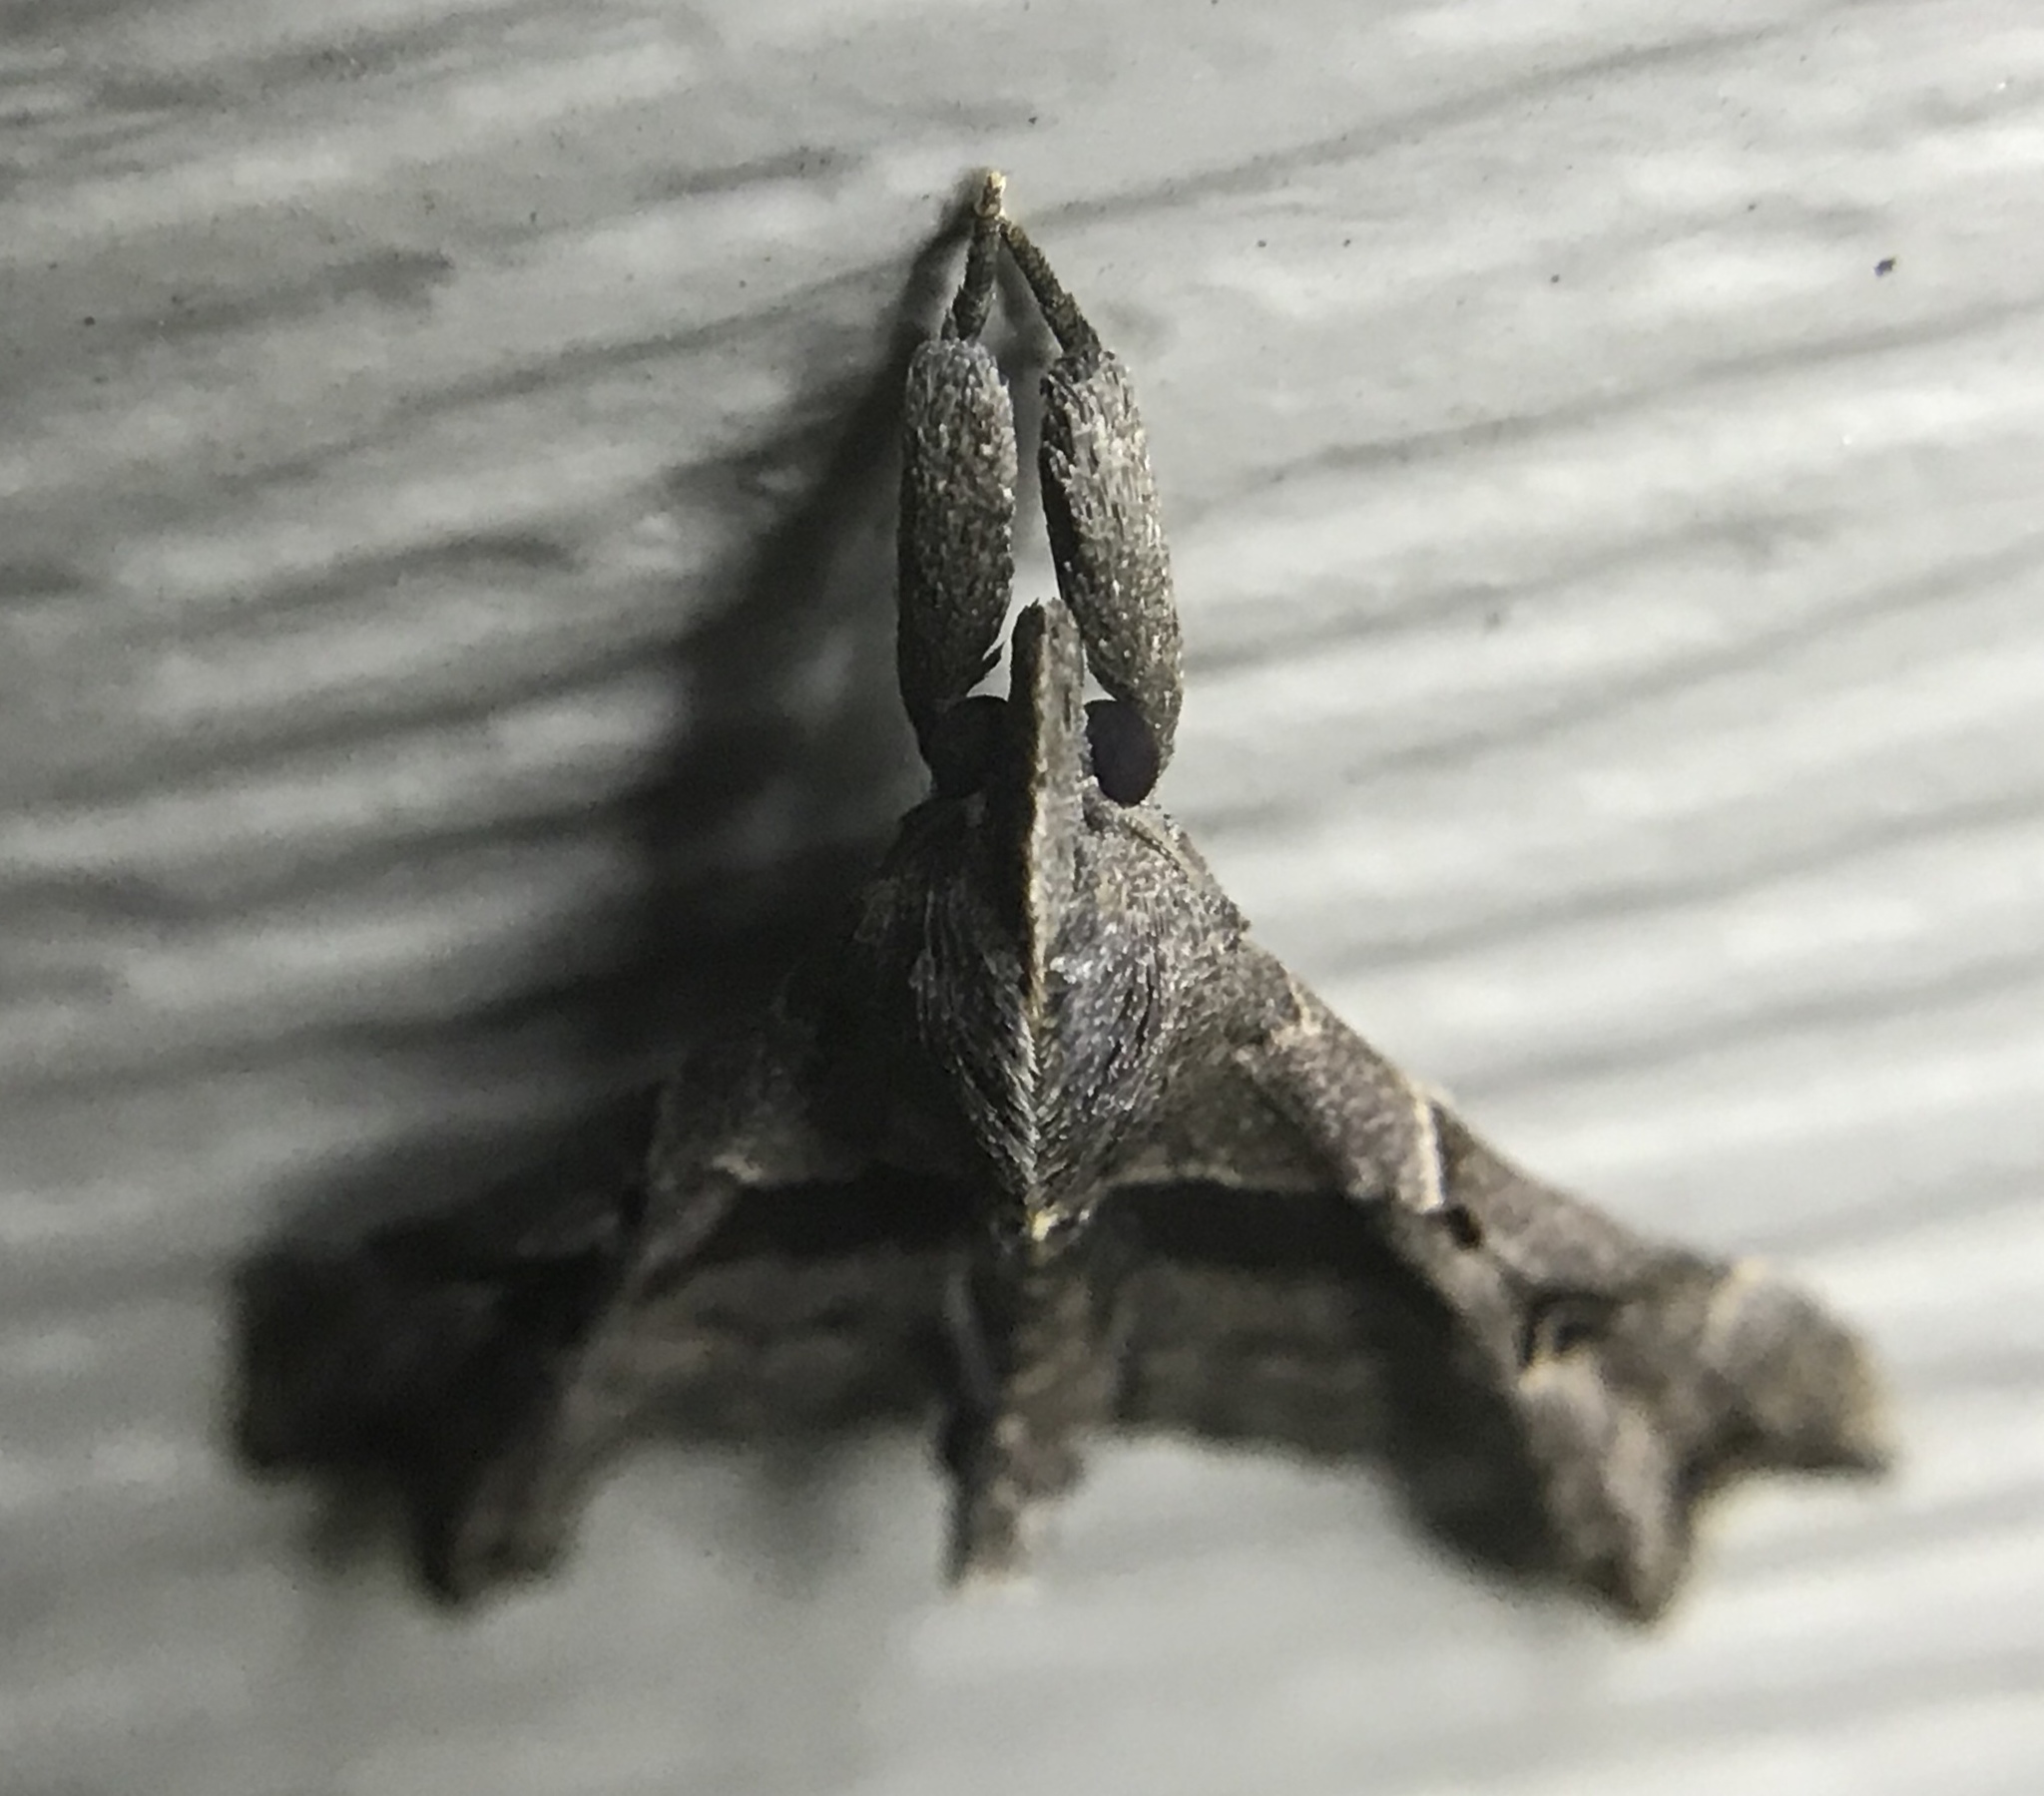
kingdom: Animalia
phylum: Arthropoda
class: Insecta
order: Lepidoptera
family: Erebidae
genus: Palthis
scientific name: Palthis asopialis
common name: Faint-spotted palthis moth
